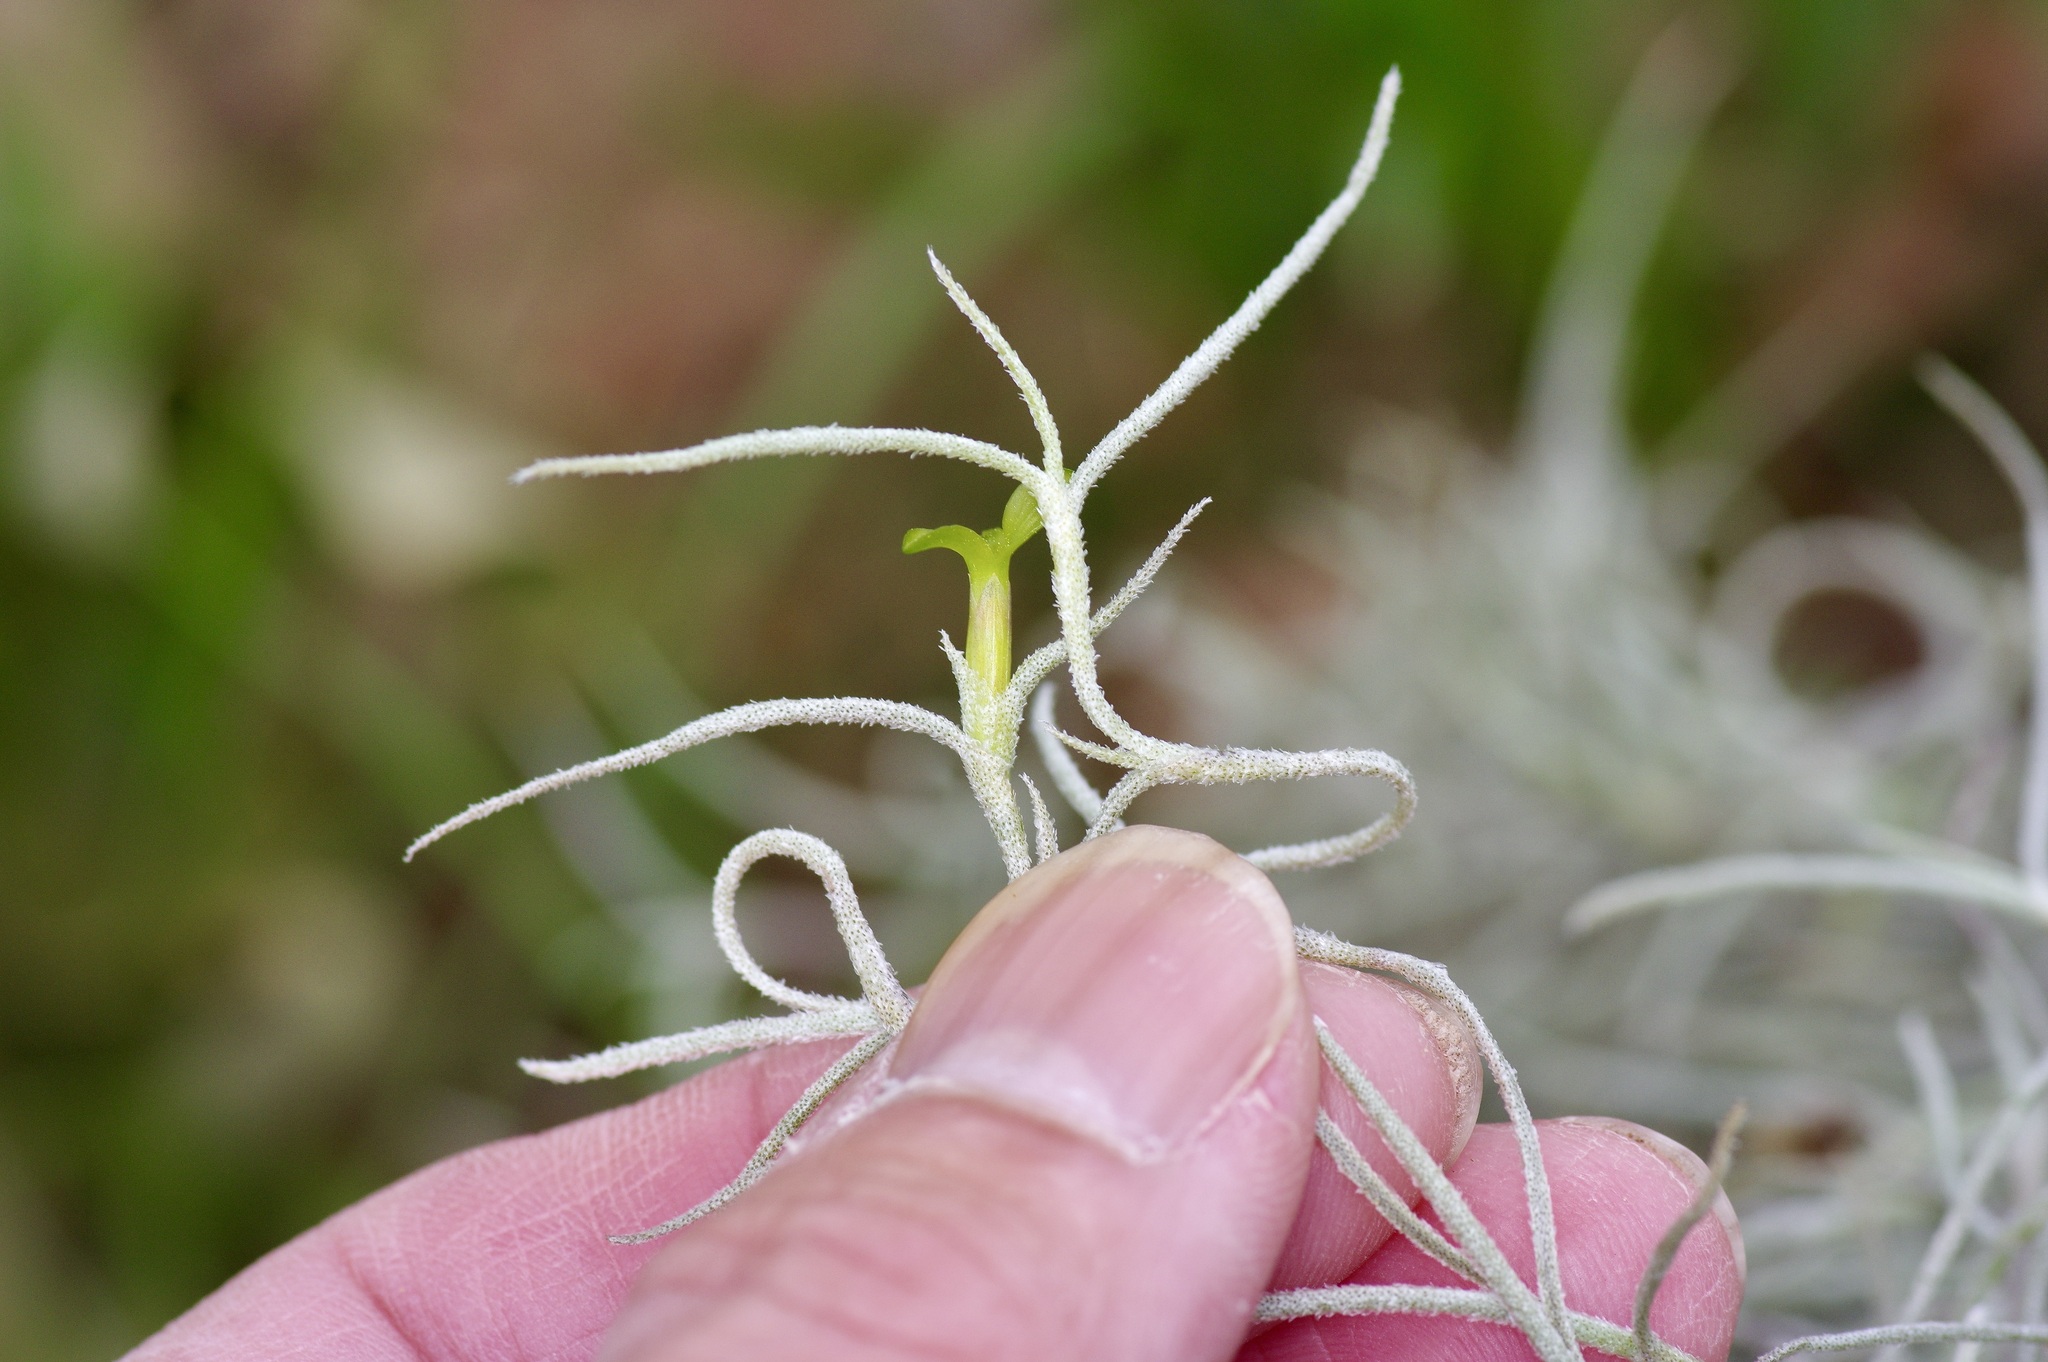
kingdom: Plantae
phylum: Tracheophyta
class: Liliopsida
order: Poales
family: Bromeliaceae
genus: Tillandsia
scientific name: Tillandsia usneoides
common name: Spanish moss
